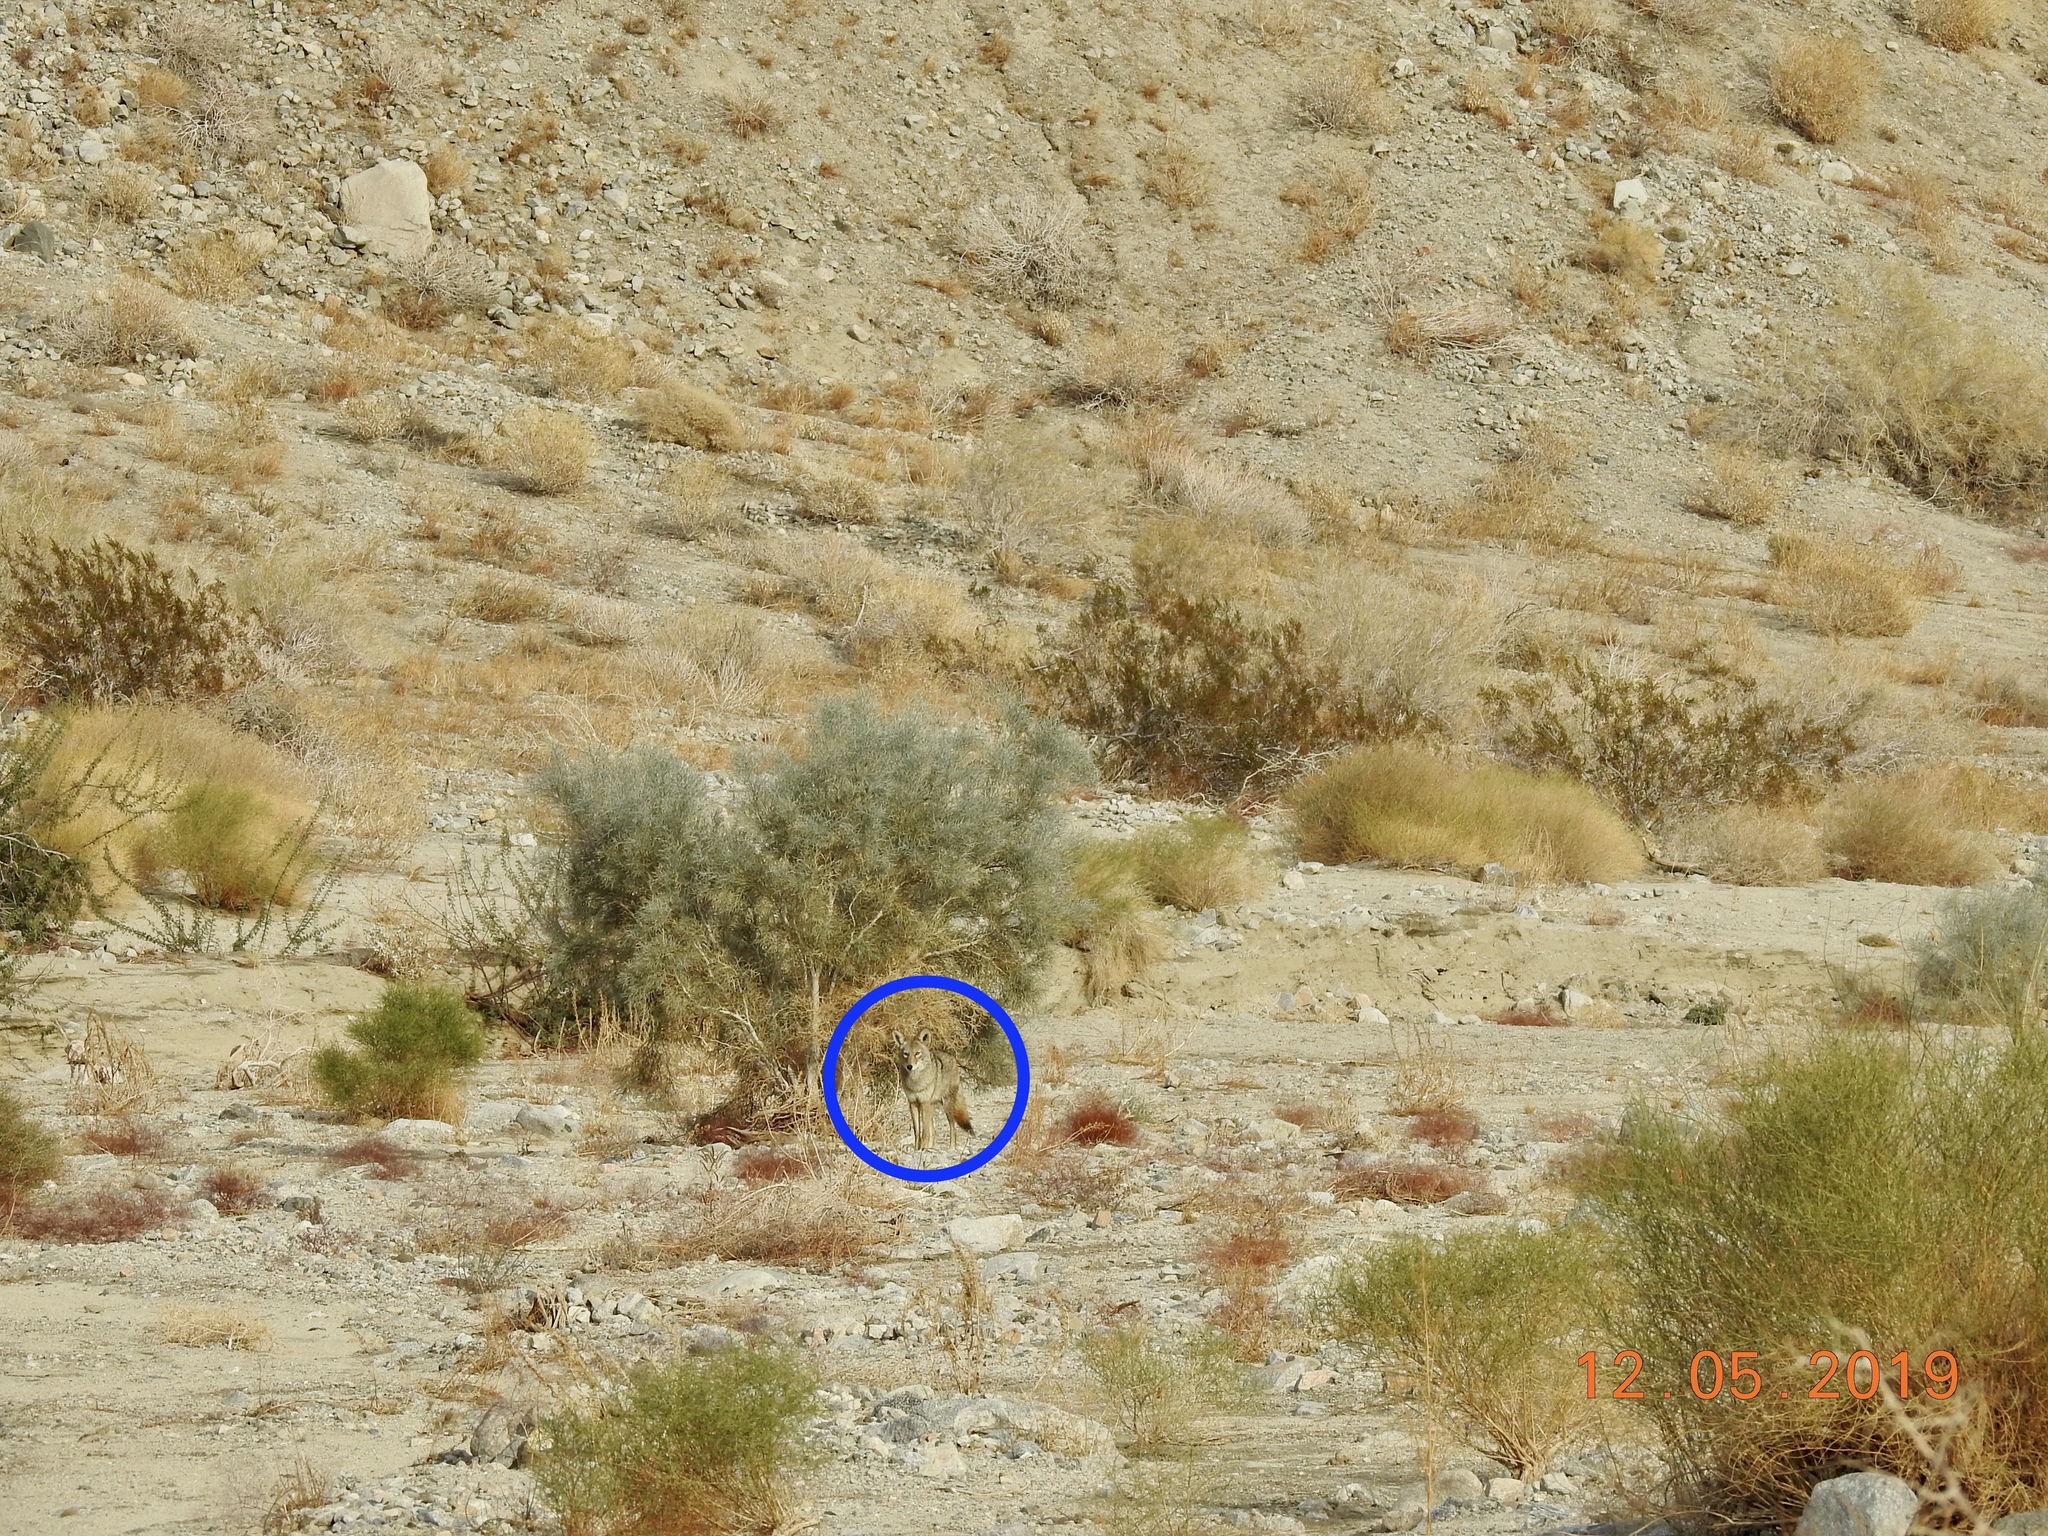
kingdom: Animalia
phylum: Chordata
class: Mammalia
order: Carnivora
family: Canidae
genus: Canis
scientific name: Canis latrans
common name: Coyote
